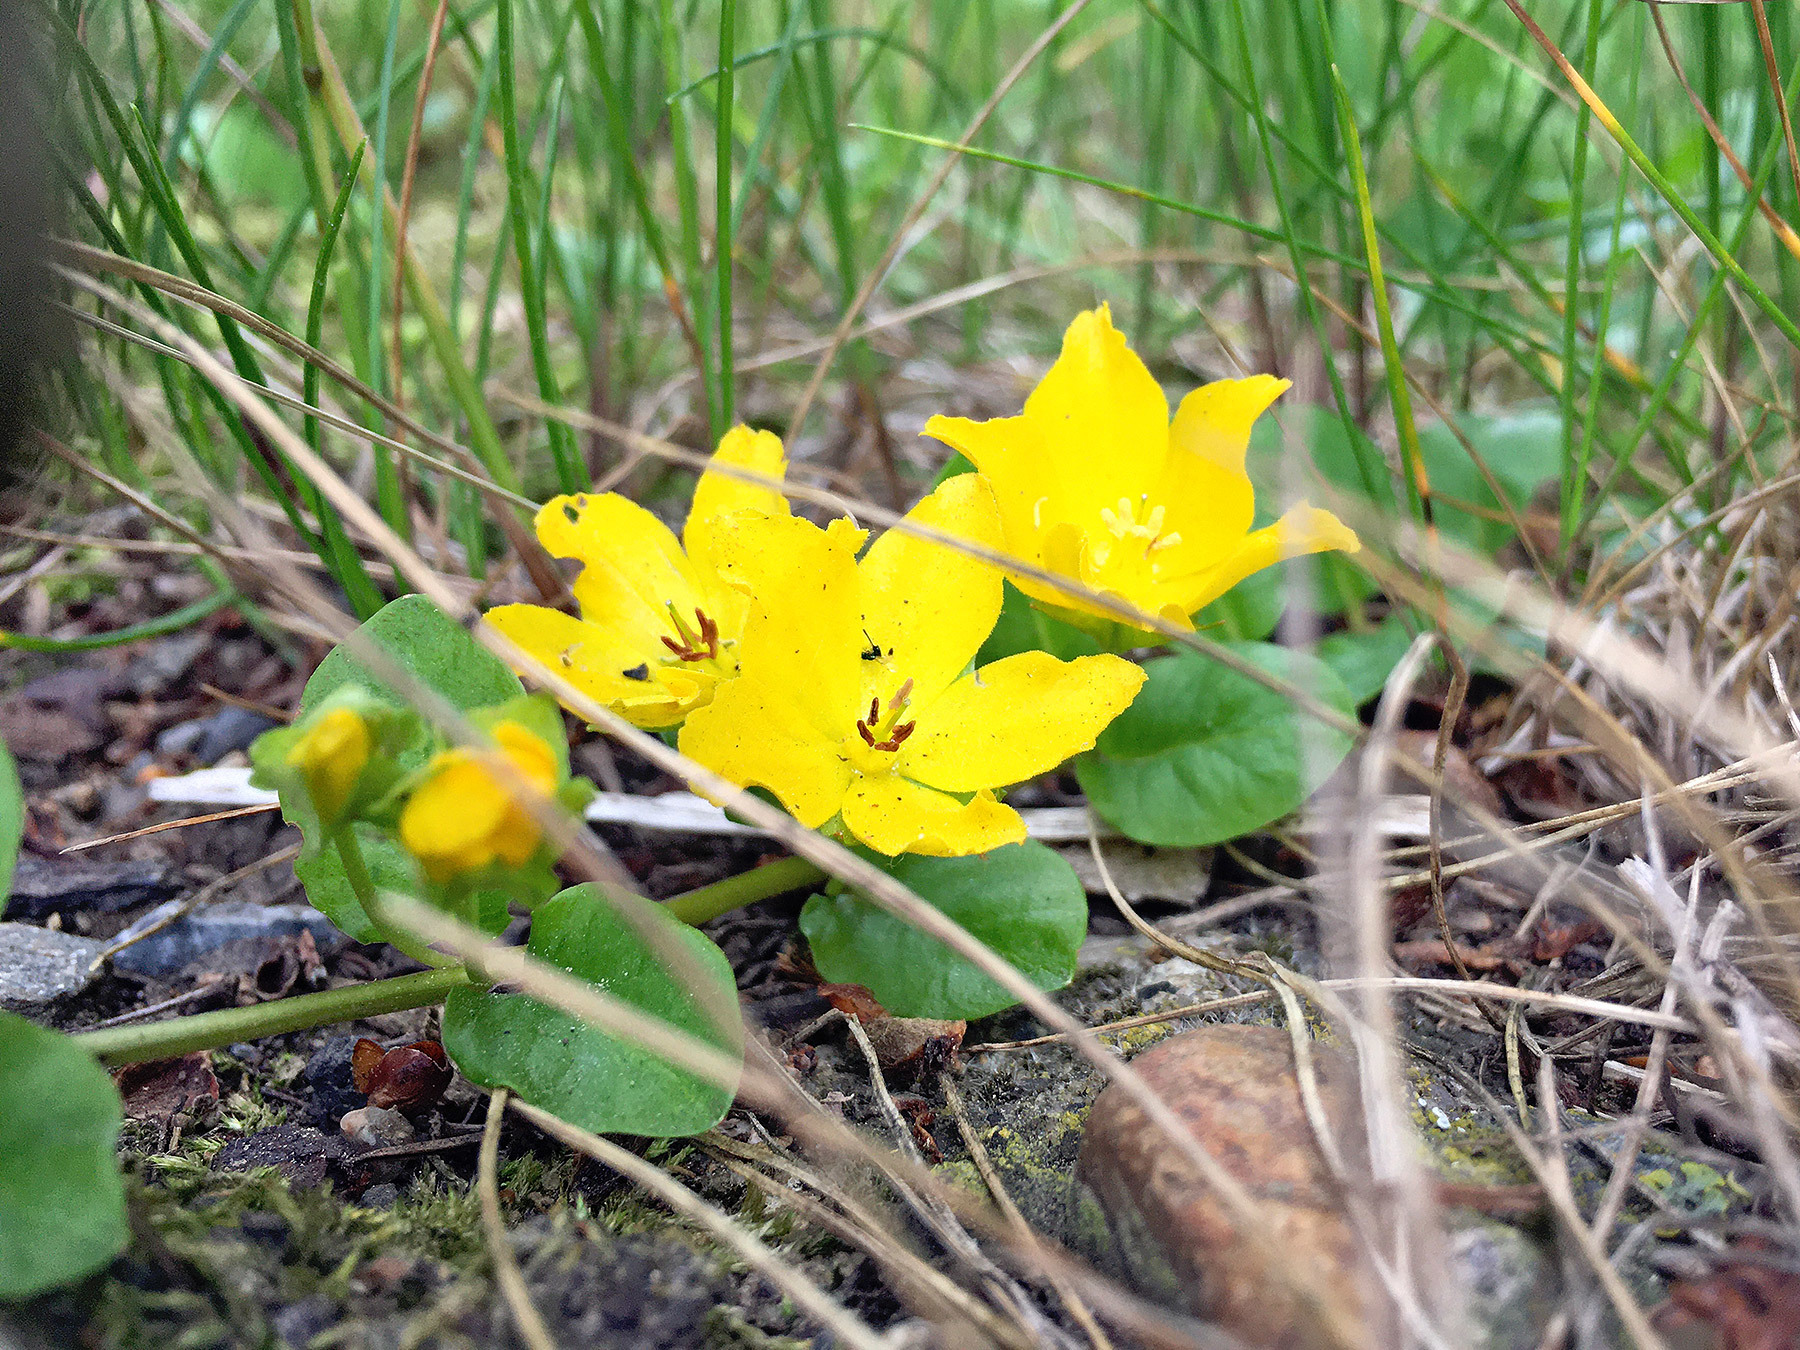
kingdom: Plantae
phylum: Tracheophyta
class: Magnoliopsida
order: Ericales
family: Primulaceae
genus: Lysimachia
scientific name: Lysimachia nummularia
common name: Moneywort
